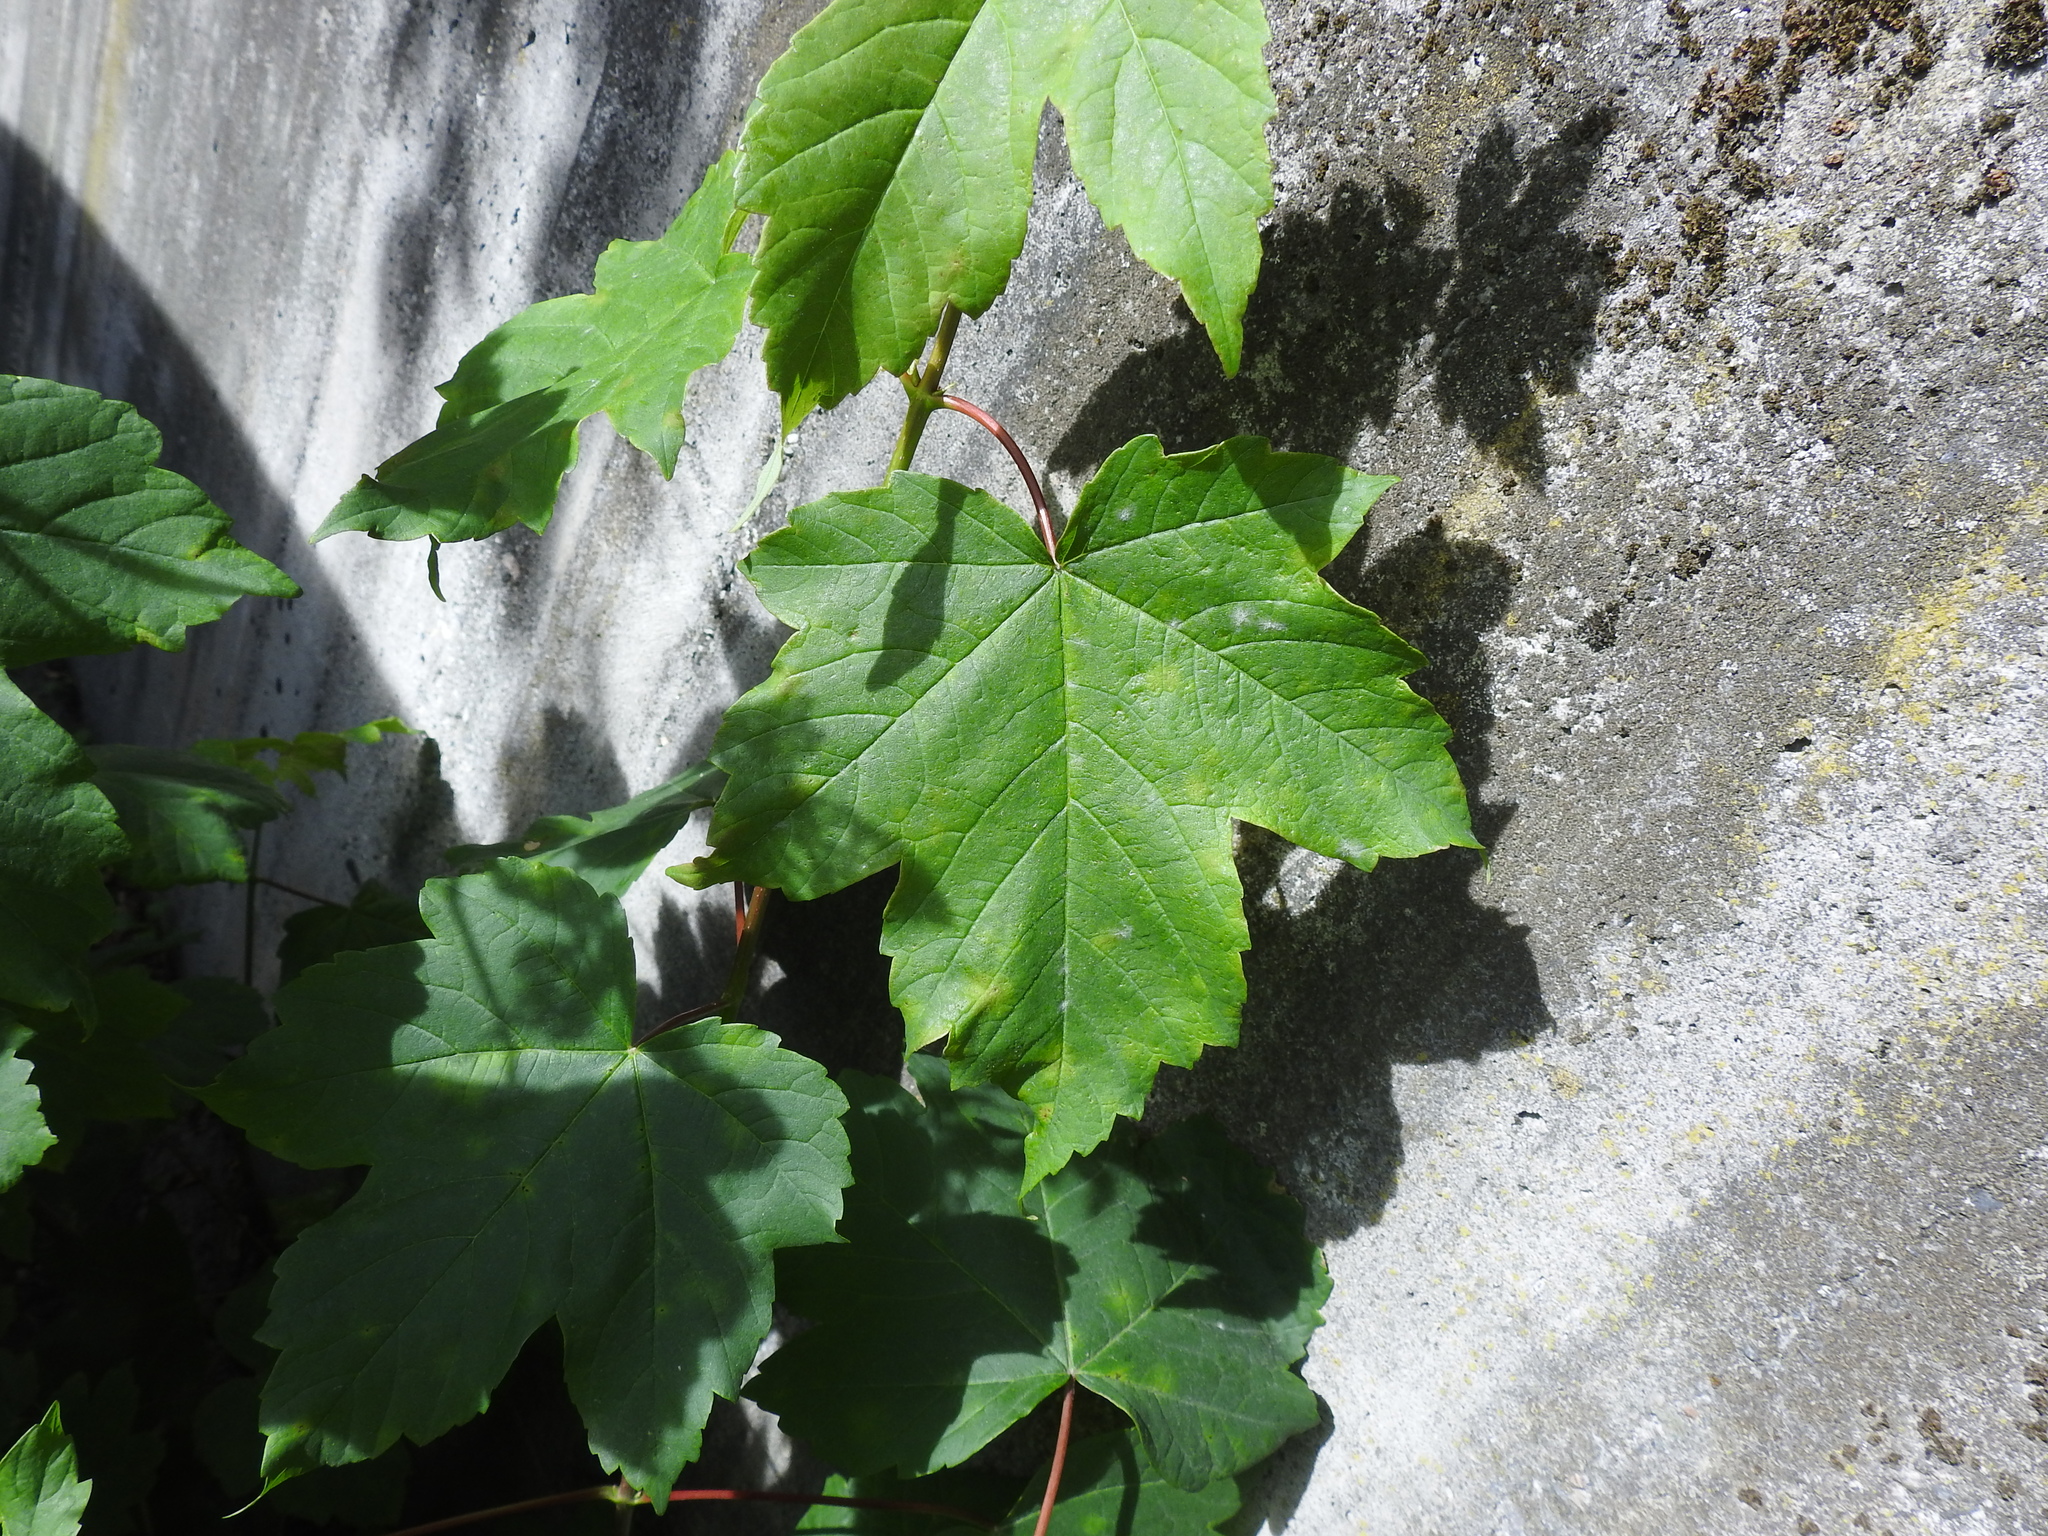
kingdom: Plantae
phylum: Tracheophyta
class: Magnoliopsida
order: Sapindales
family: Sapindaceae
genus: Acer
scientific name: Acer pseudoplatanus
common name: Sycamore
